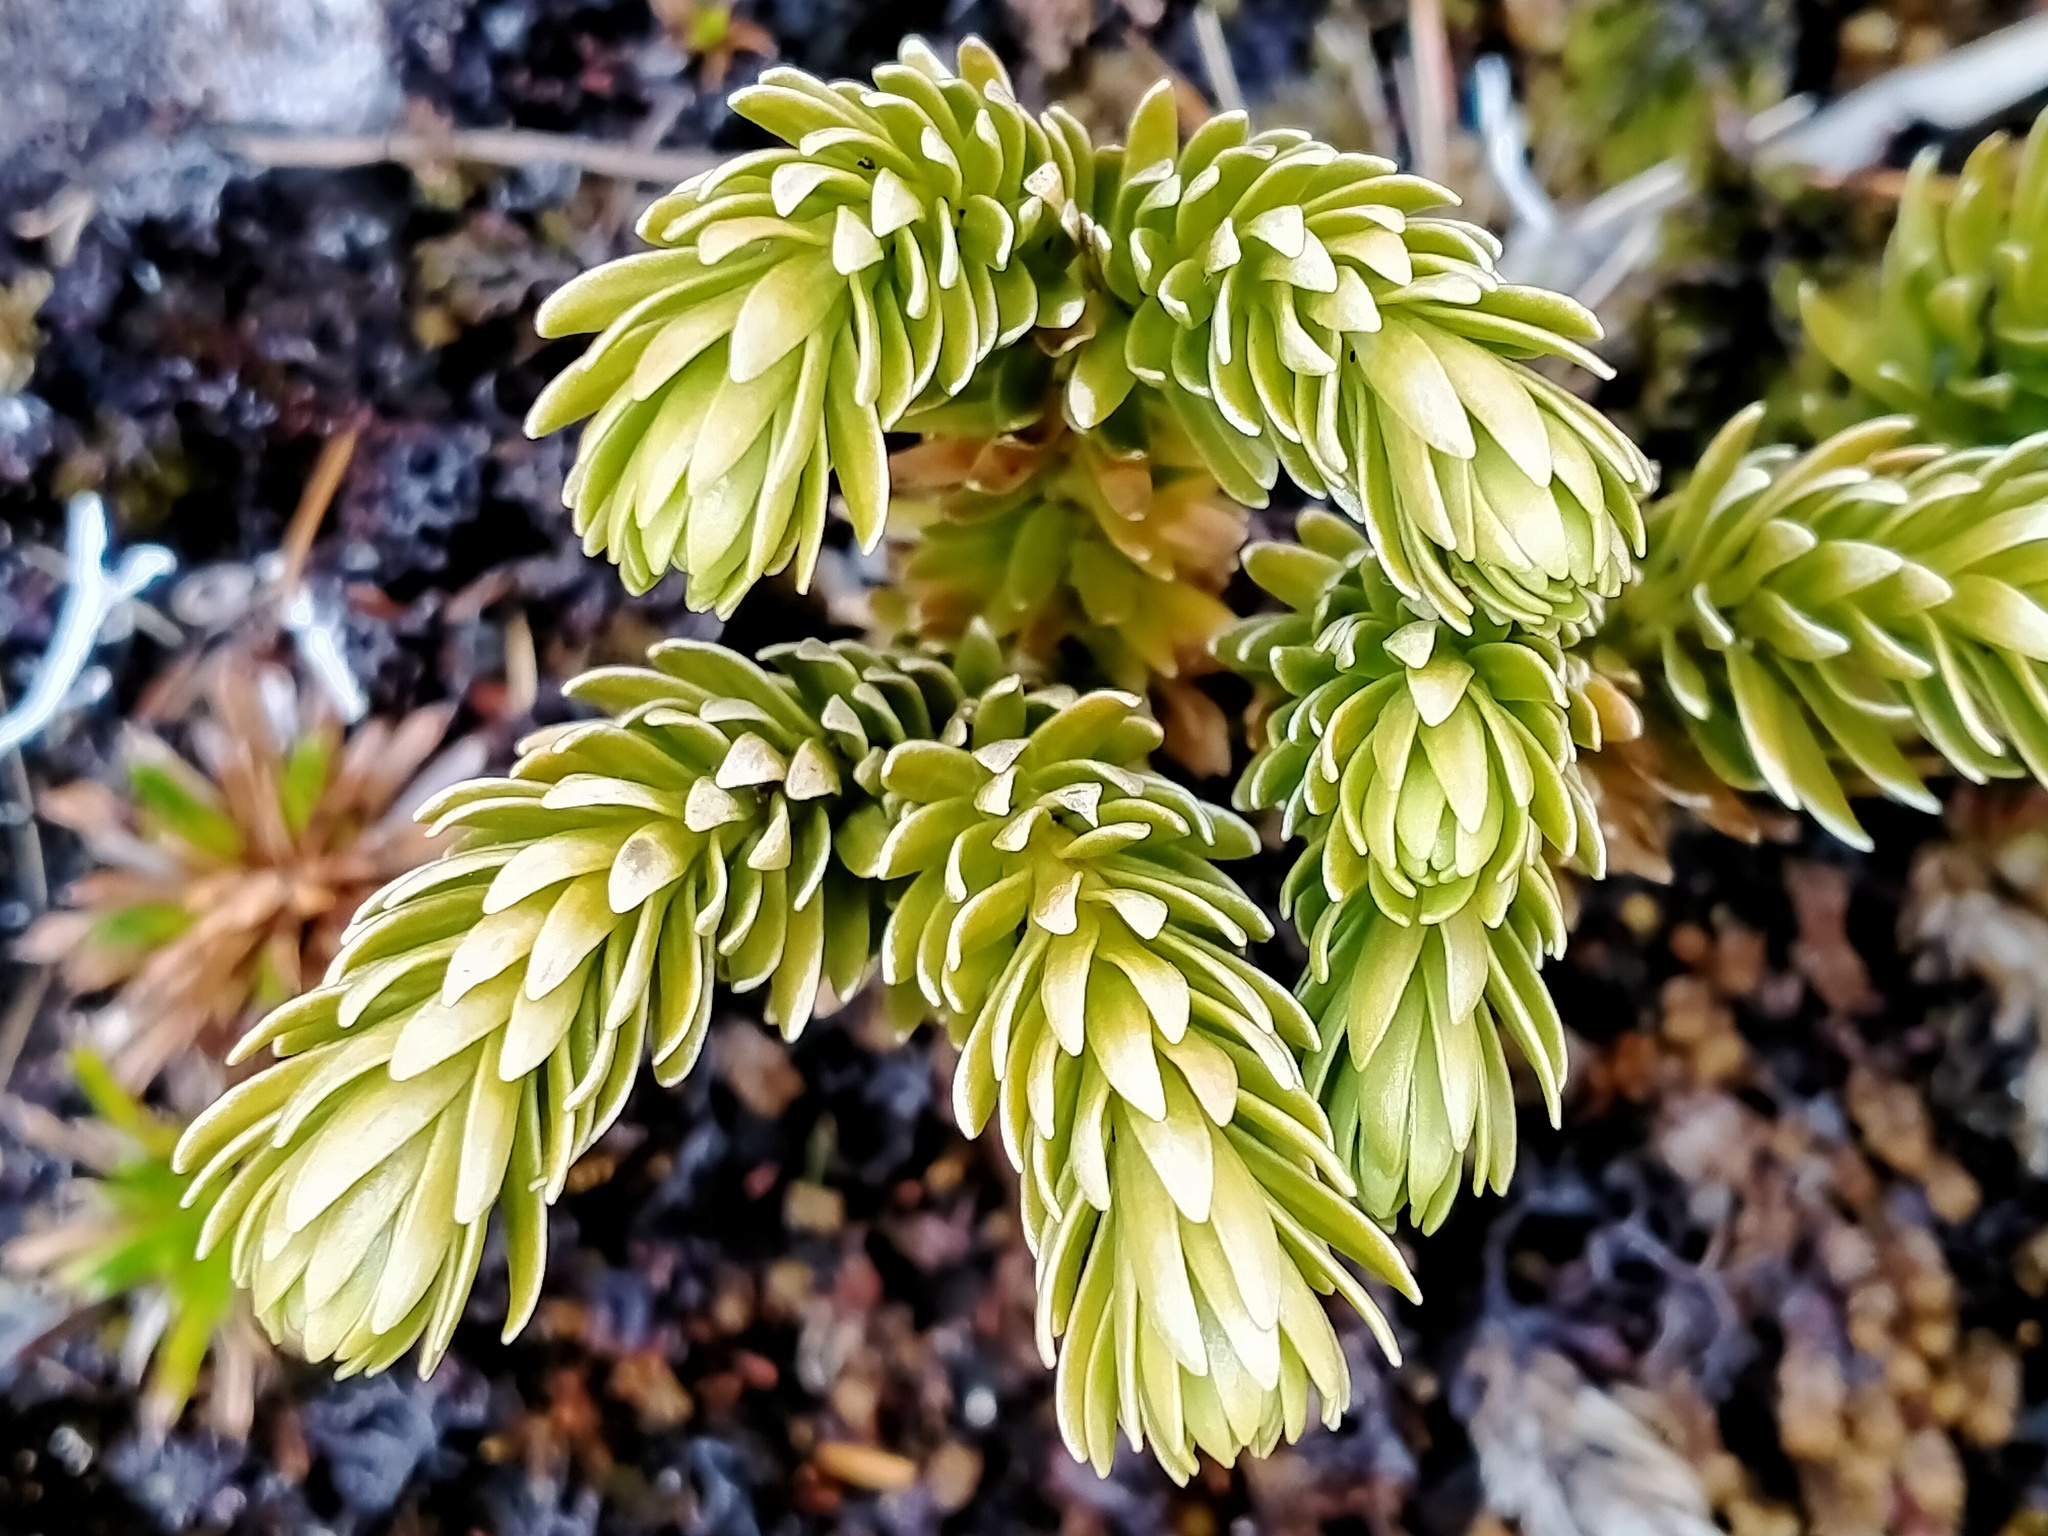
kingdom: Plantae
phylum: Tracheophyta
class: Lycopodiopsida
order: Lycopodiales
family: Lycopodiaceae
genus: Huperzia
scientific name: Huperzia australiana
